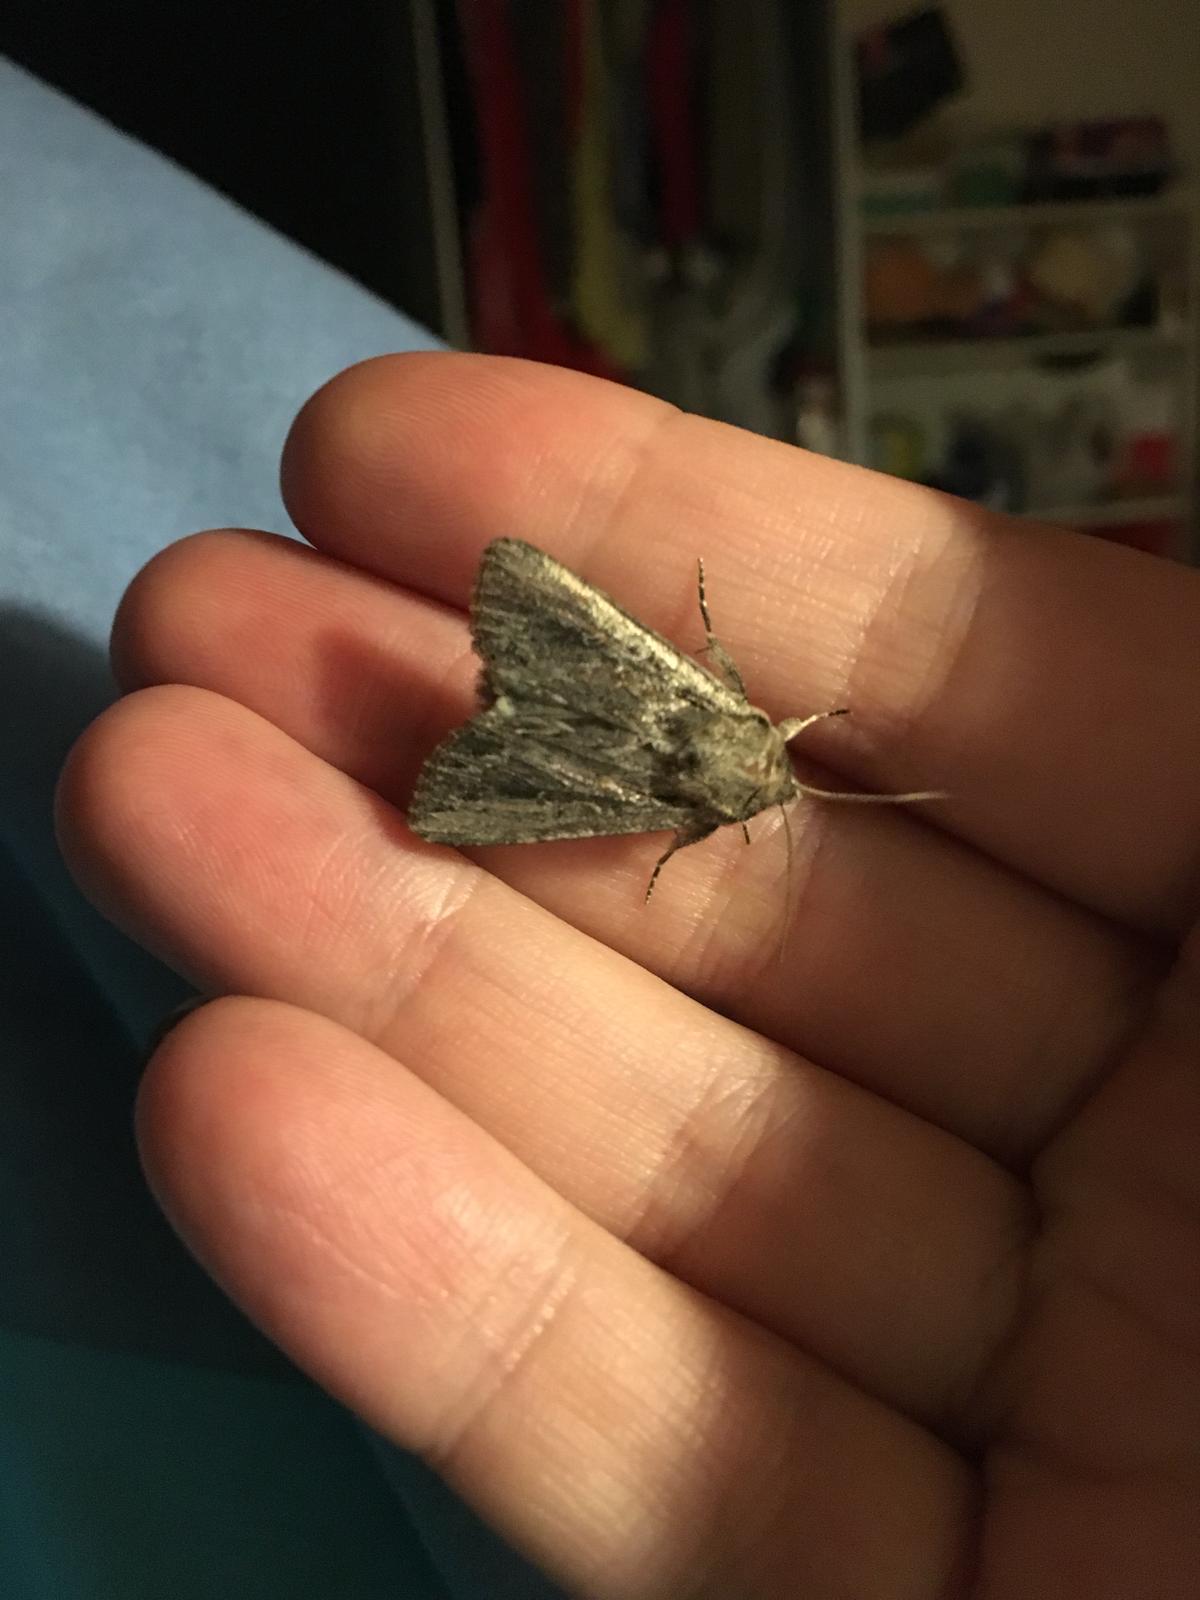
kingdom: Animalia
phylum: Arthropoda
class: Insecta
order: Lepidoptera
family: Noctuidae
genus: Persectania
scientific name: Persectania dyscrita
